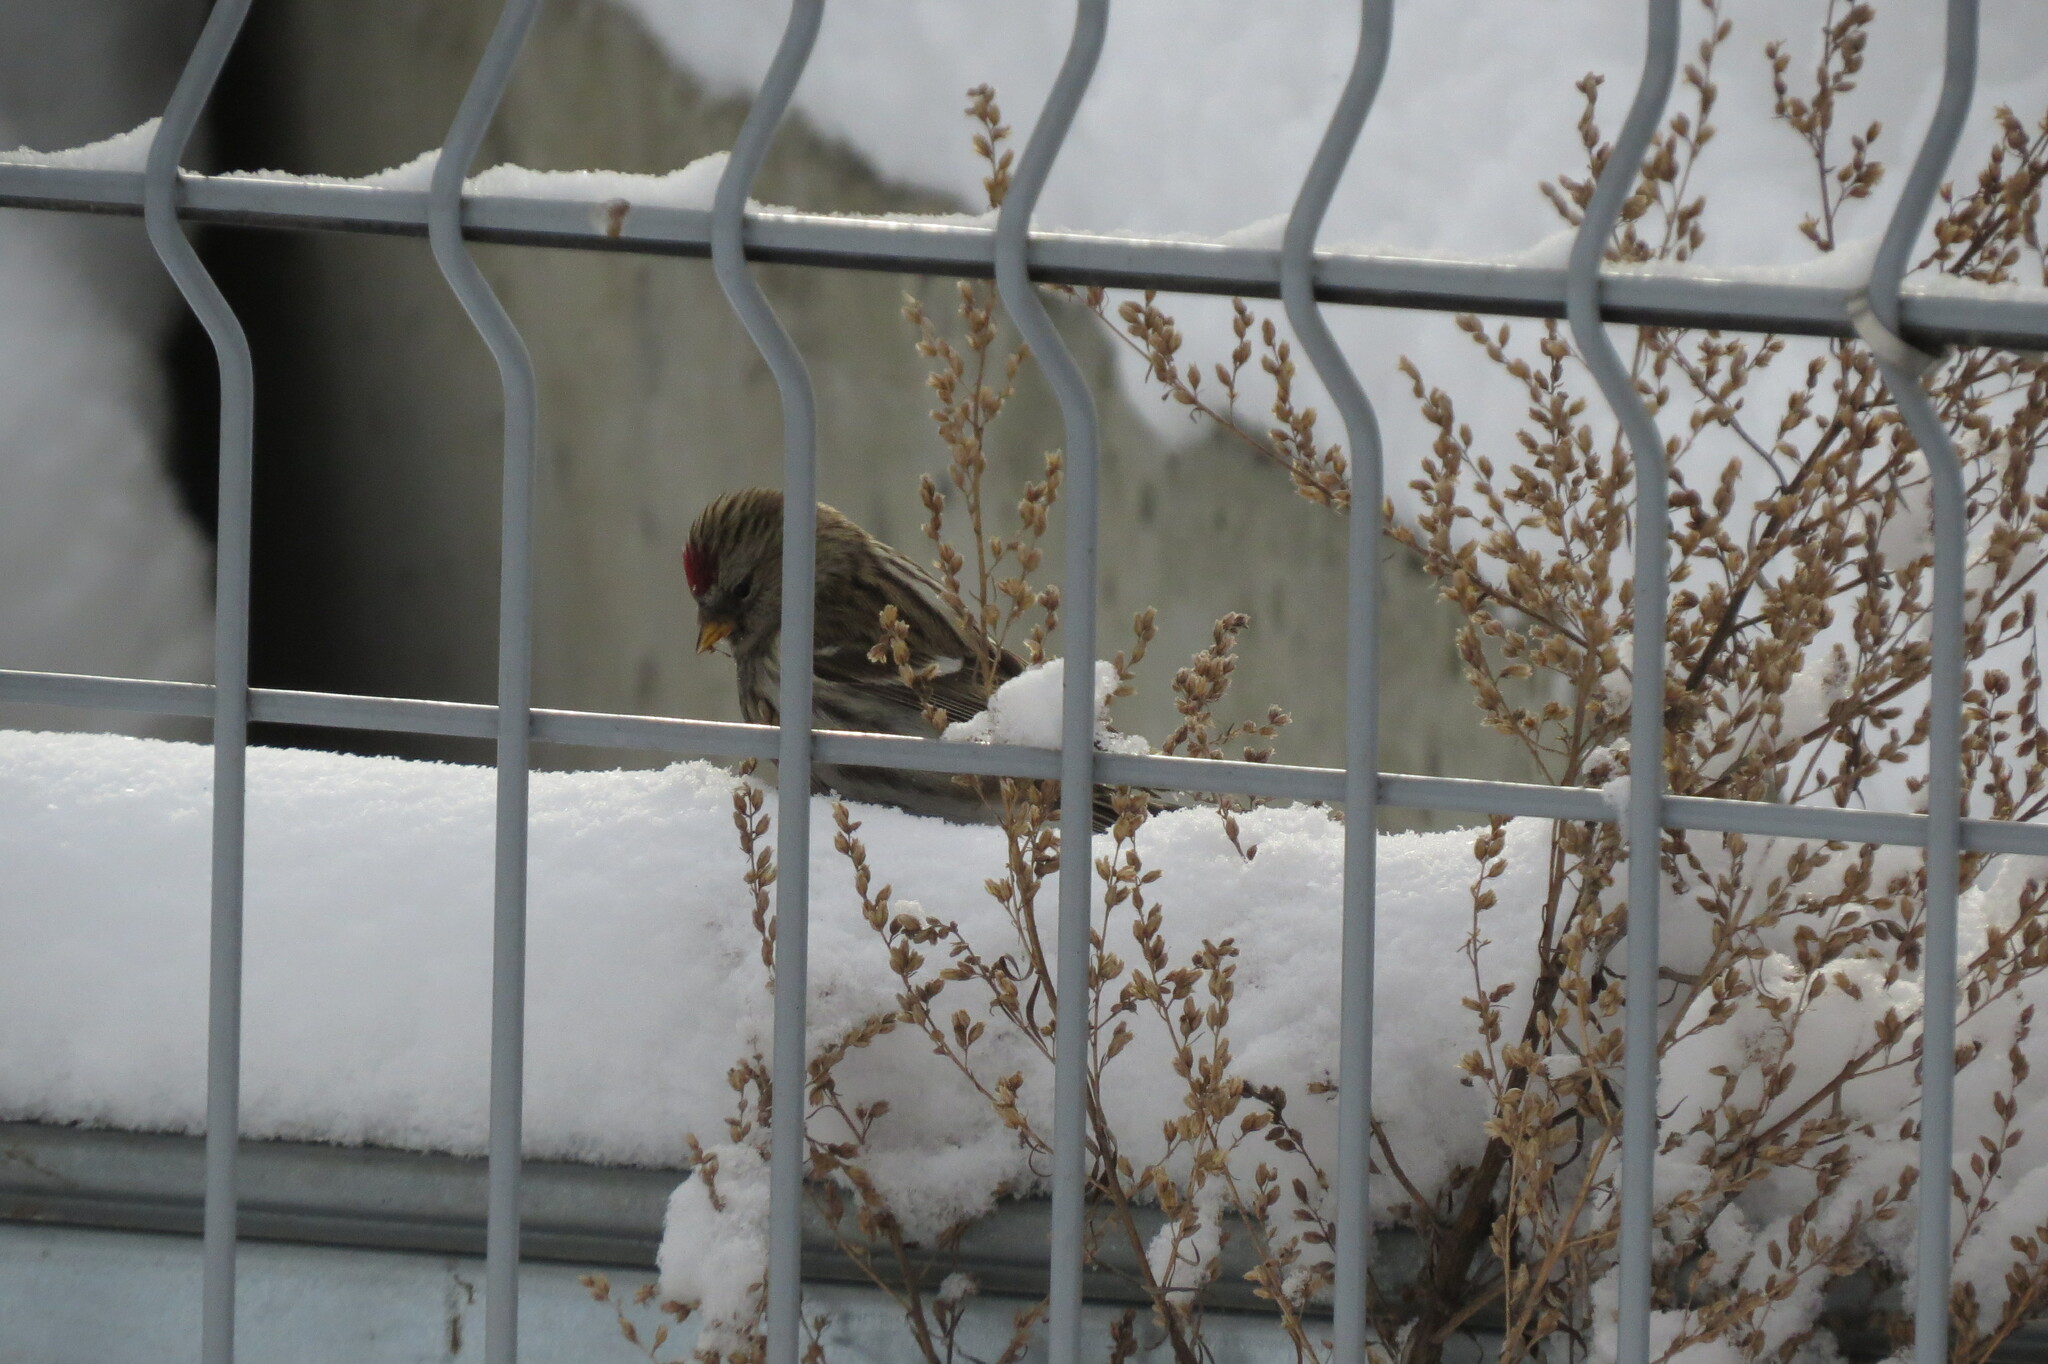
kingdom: Animalia
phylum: Chordata
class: Aves
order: Passeriformes
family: Fringillidae
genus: Acanthis
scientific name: Acanthis flammea
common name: Common redpoll
